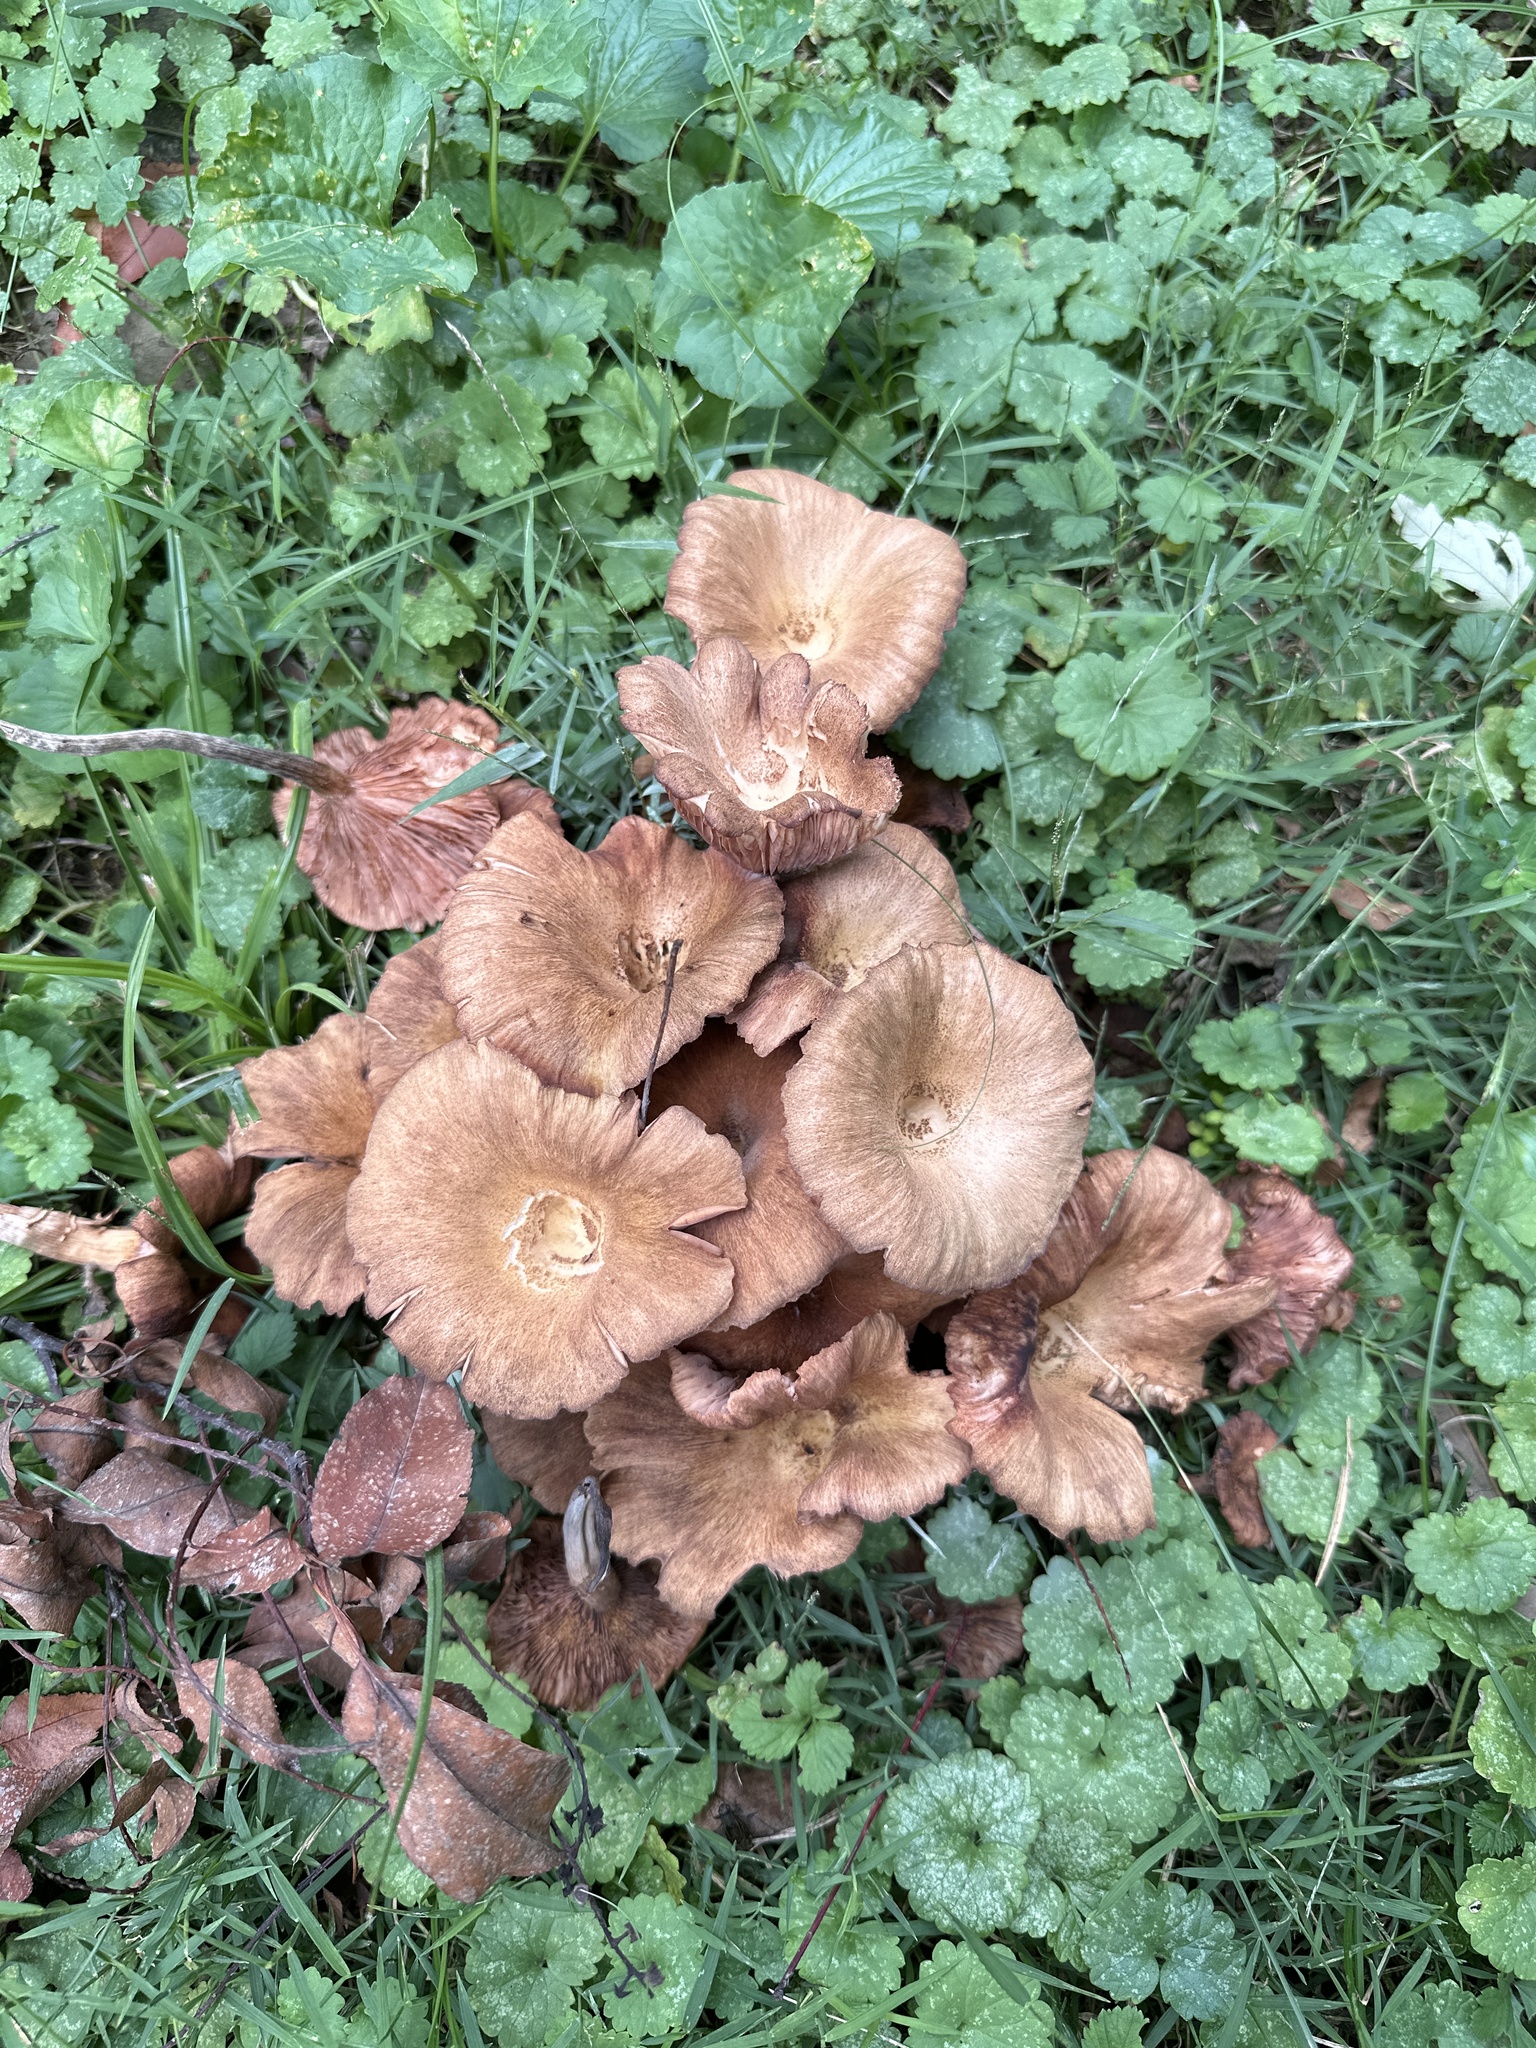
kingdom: Fungi
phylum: Basidiomycota
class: Agaricomycetes
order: Agaricales
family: Physalacriaceae
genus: Desarmillaria
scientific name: Desarmillaria caespitosa
